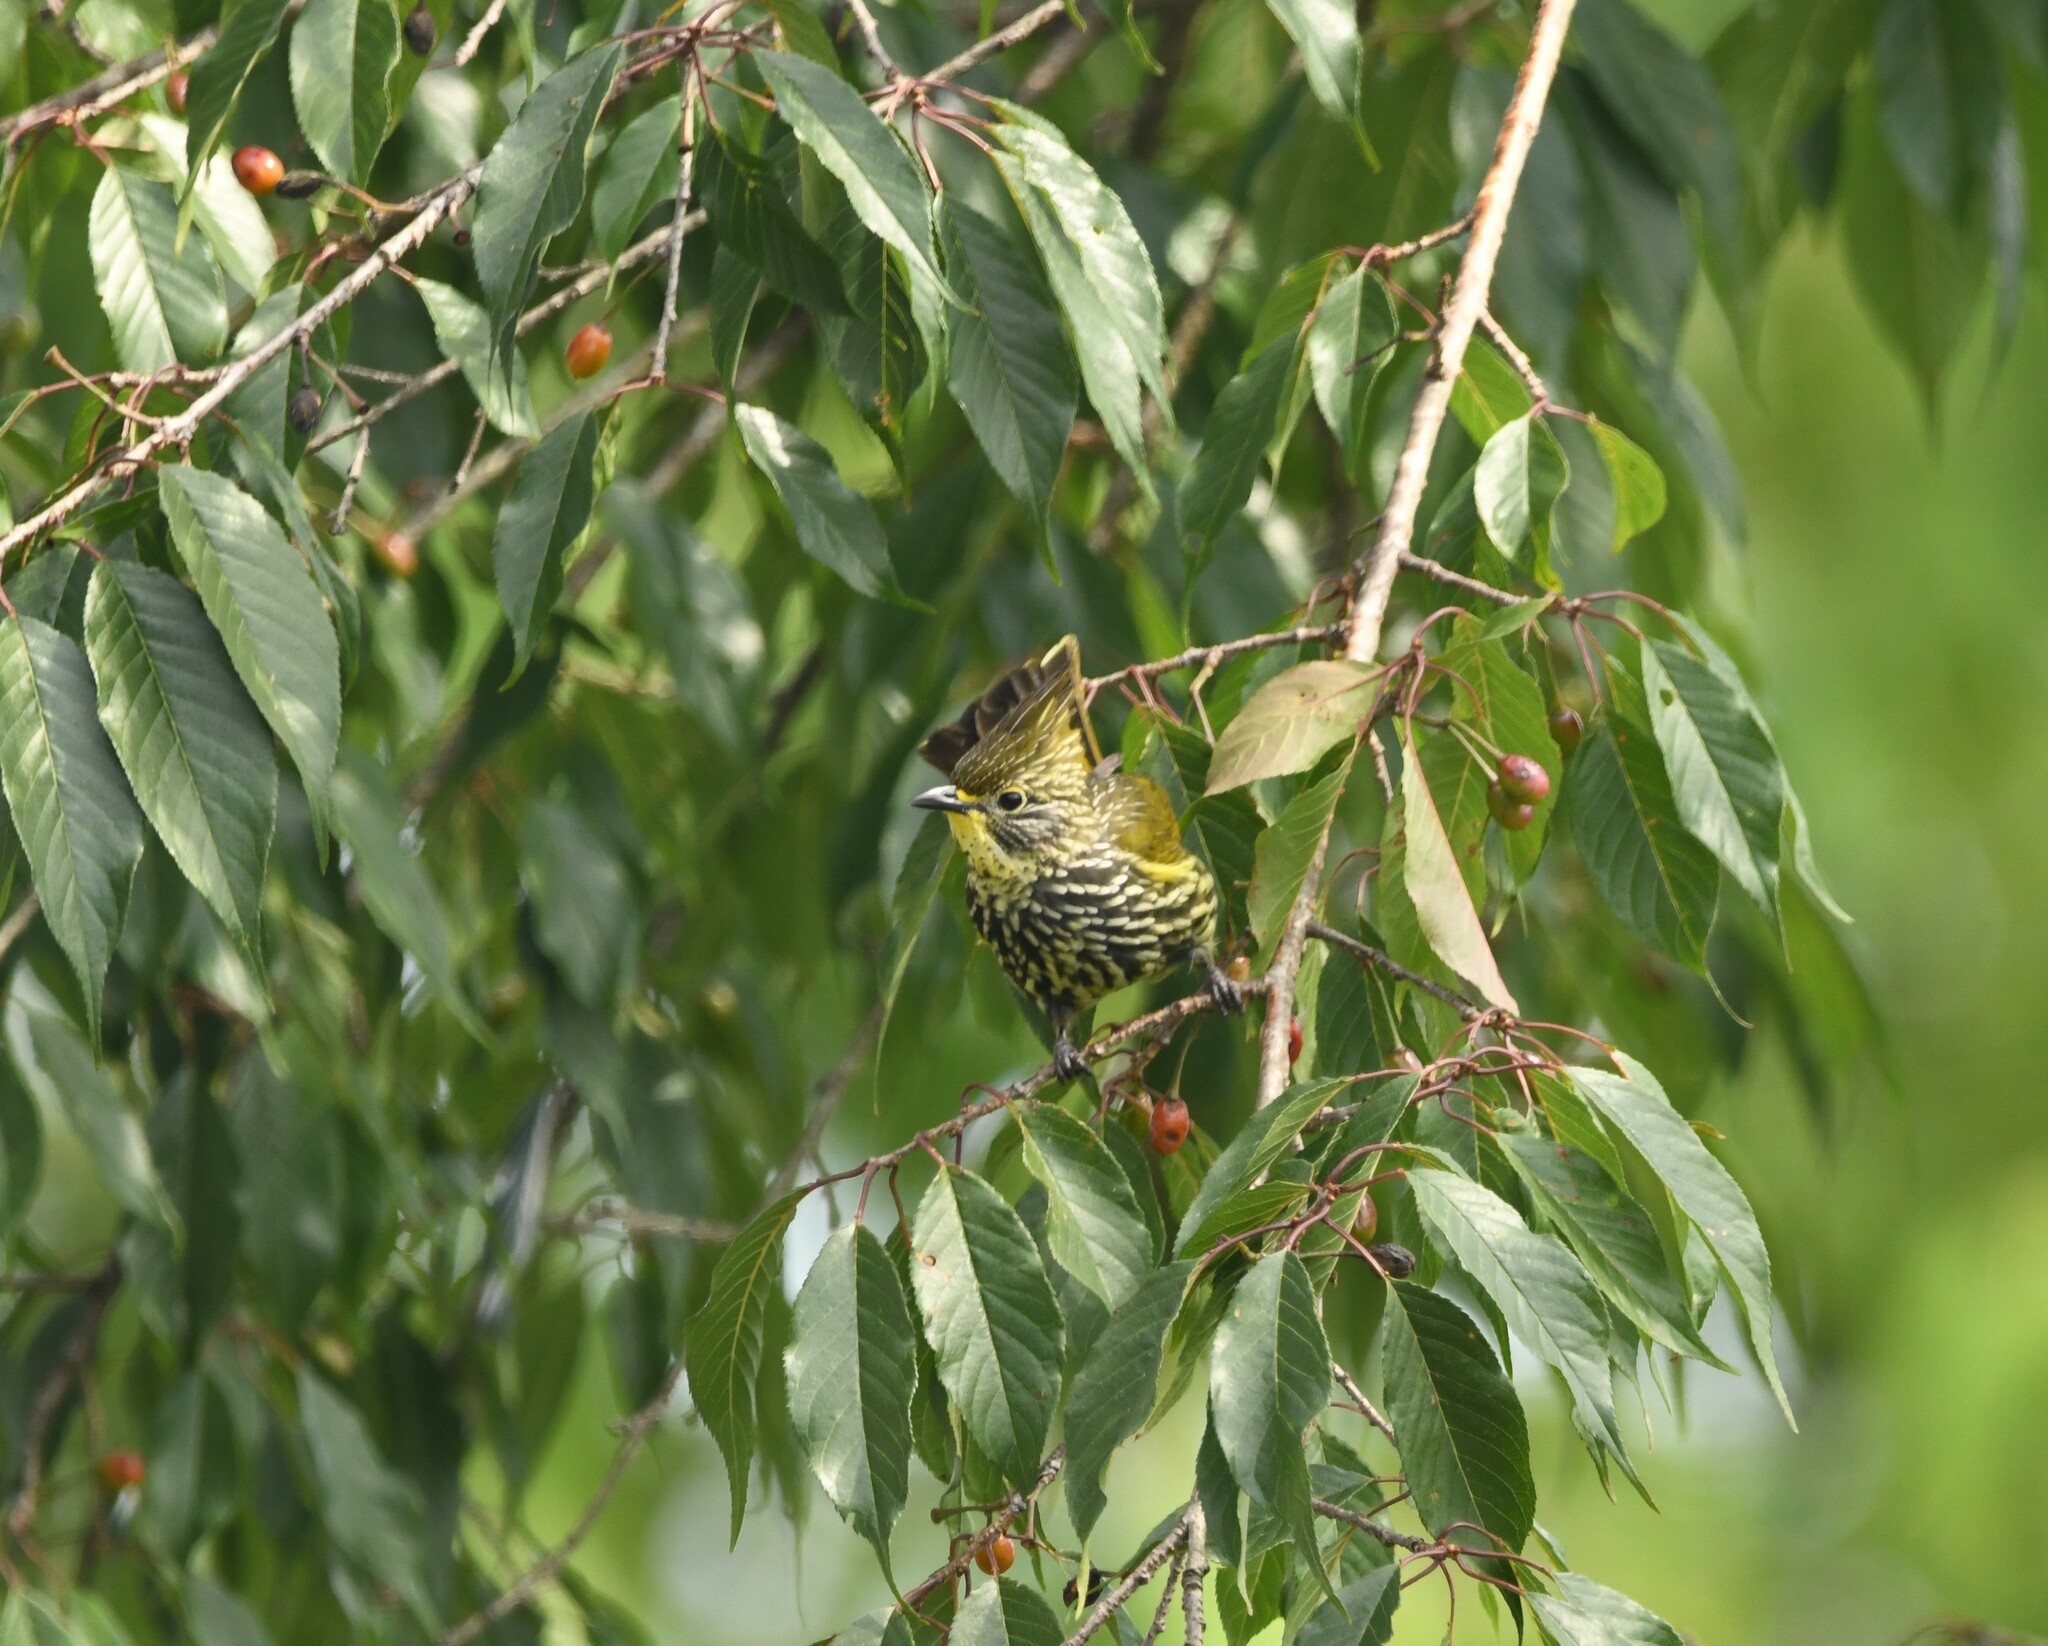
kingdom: Animalia
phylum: Chordata
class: Aves
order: Passeriformes
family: Pycnonotidae
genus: Pycnonotus
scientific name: Pycnonotus striatus
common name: Striated bulbul
